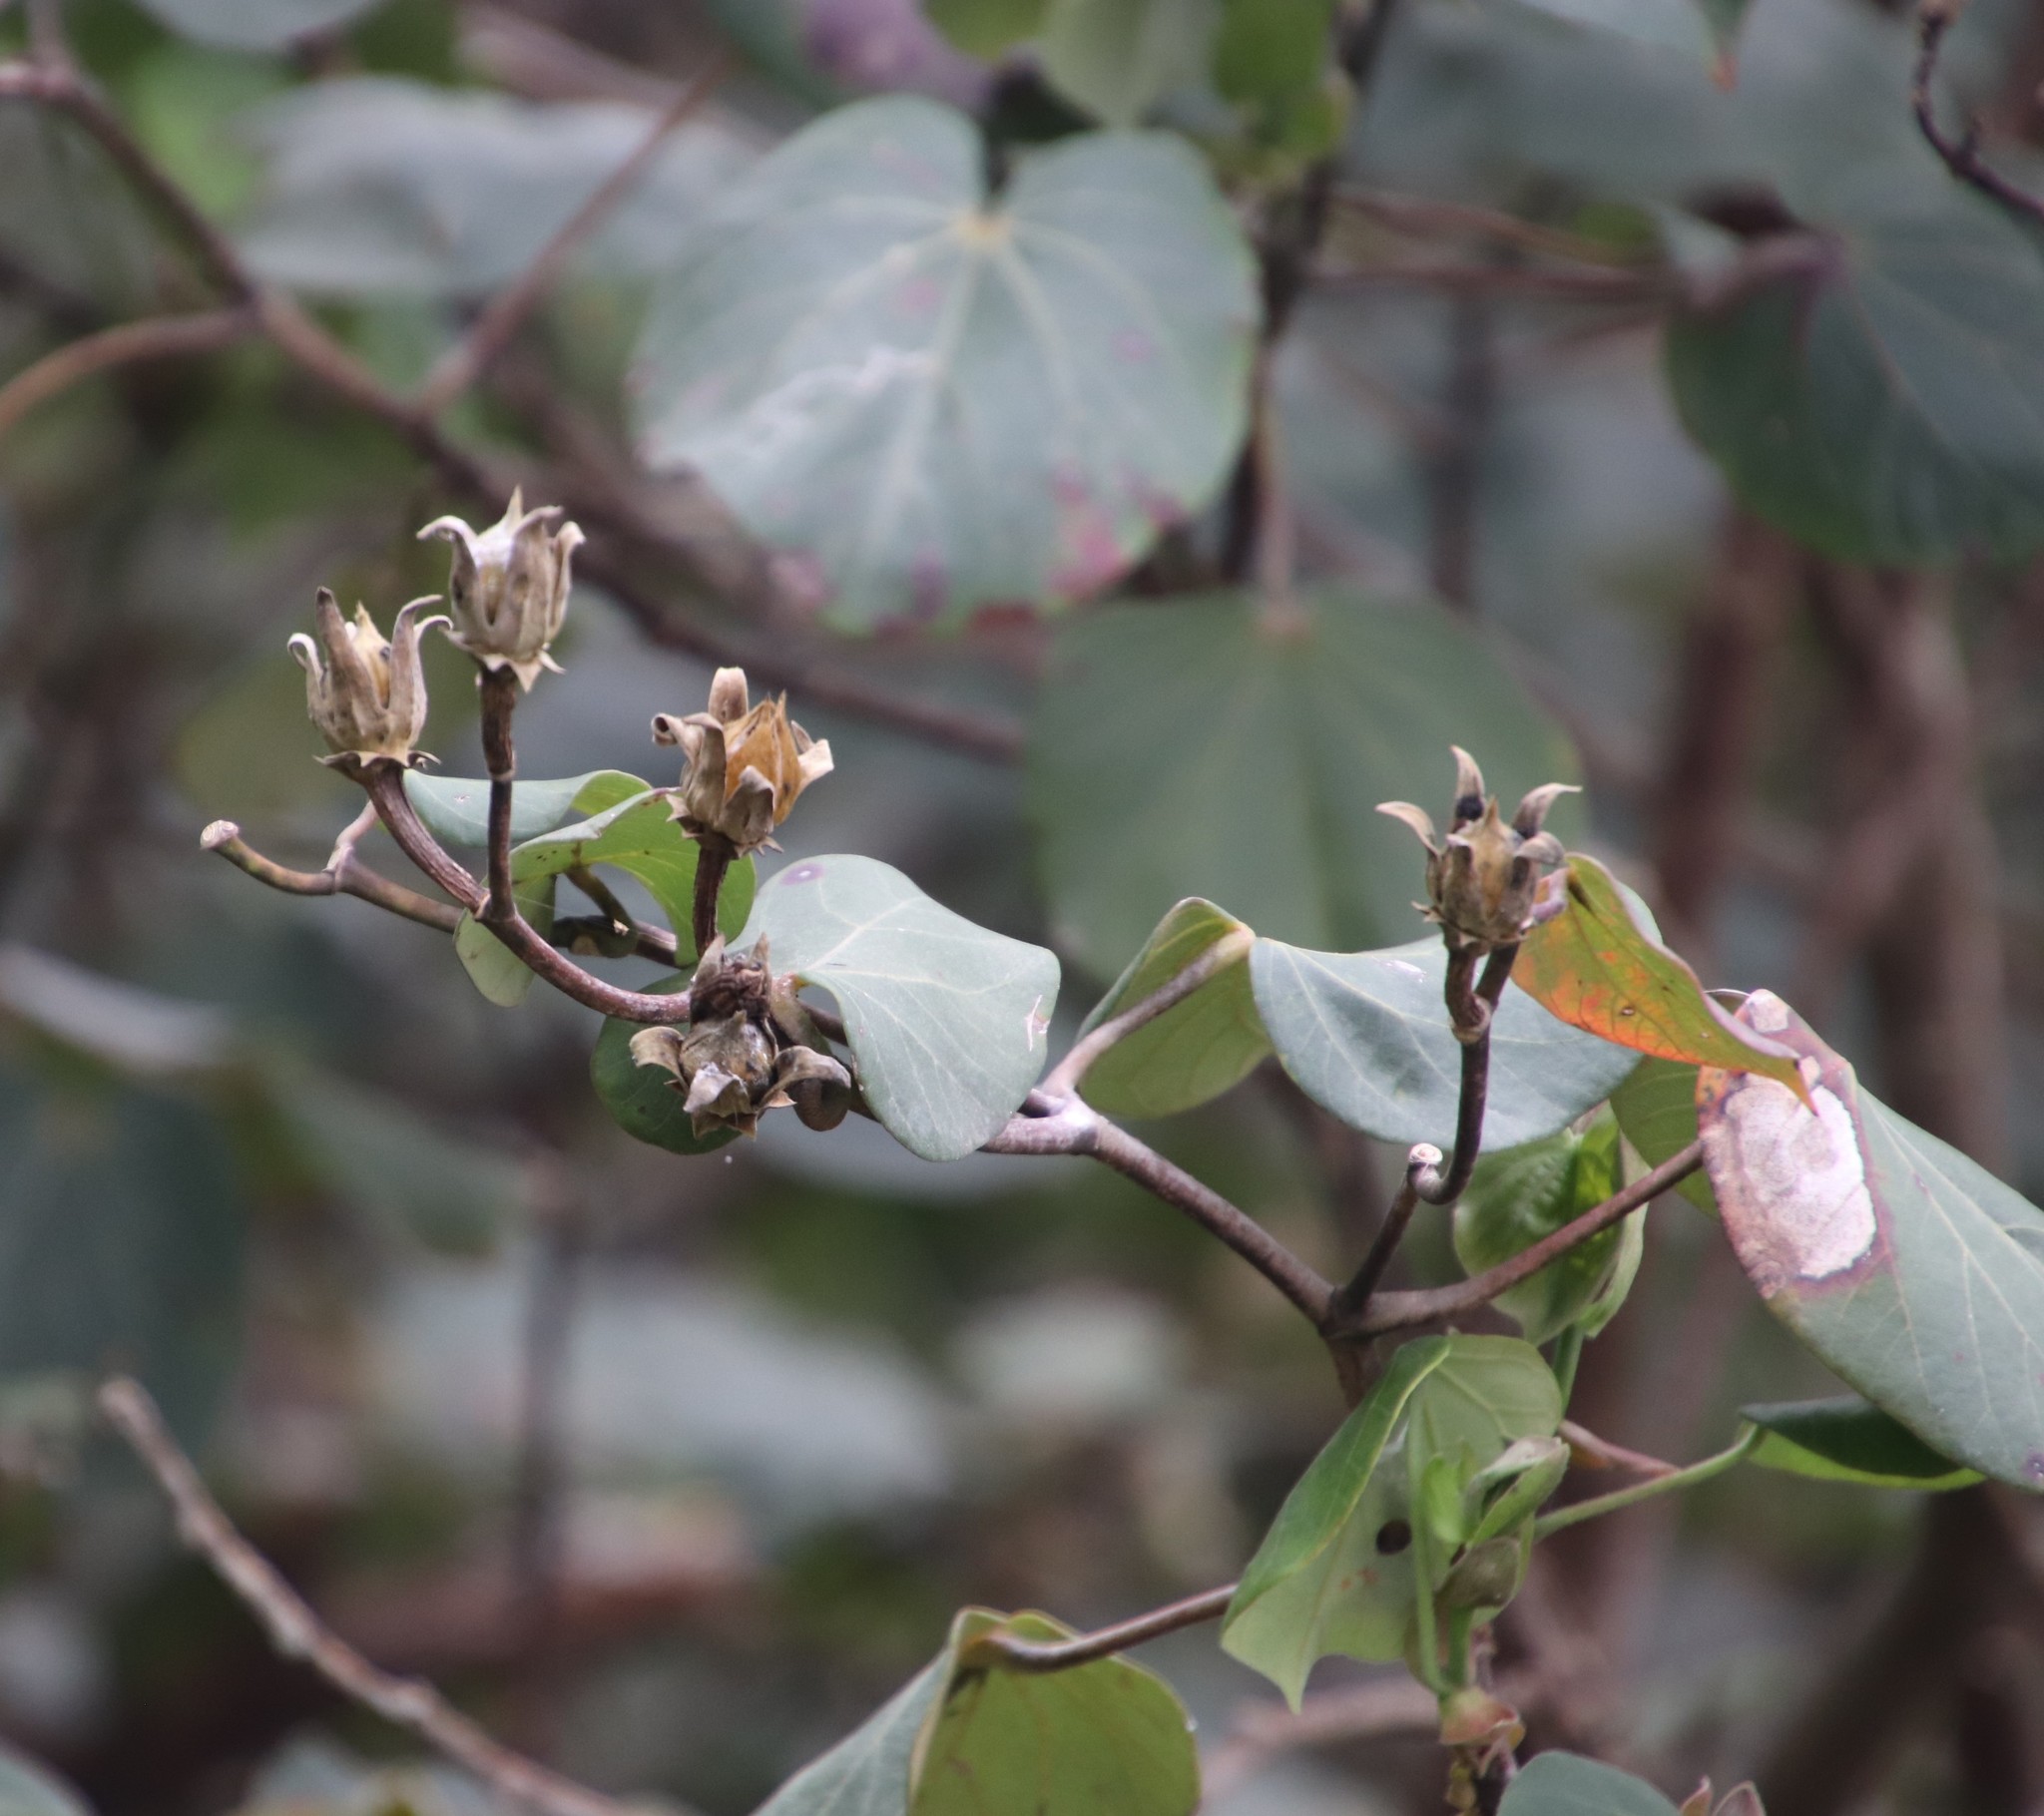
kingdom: Plantae
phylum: Tracheophyta
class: Magnoliopsida
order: Malvales
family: Malvaceae
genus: Talipariti
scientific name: Talipariti tiliaceum
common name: Sea hibiscus
